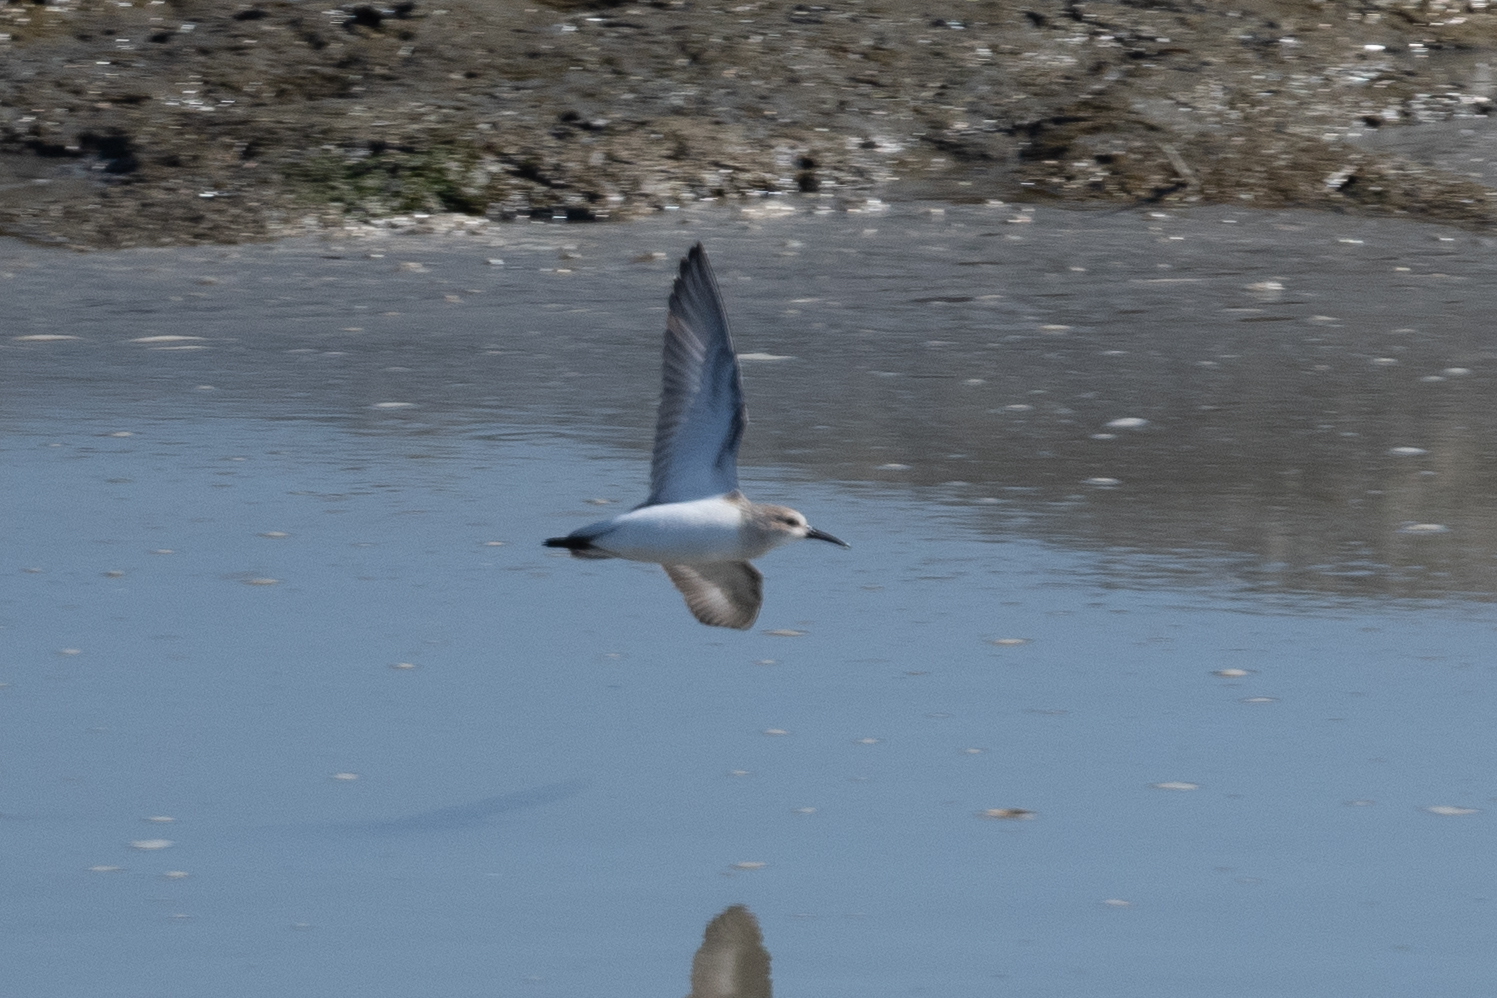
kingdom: Animalia
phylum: Chordata
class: Aves
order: Charadriiformes
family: Scolopacidae
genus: Calidris
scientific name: Calidris mauri
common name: Western sandpiper
